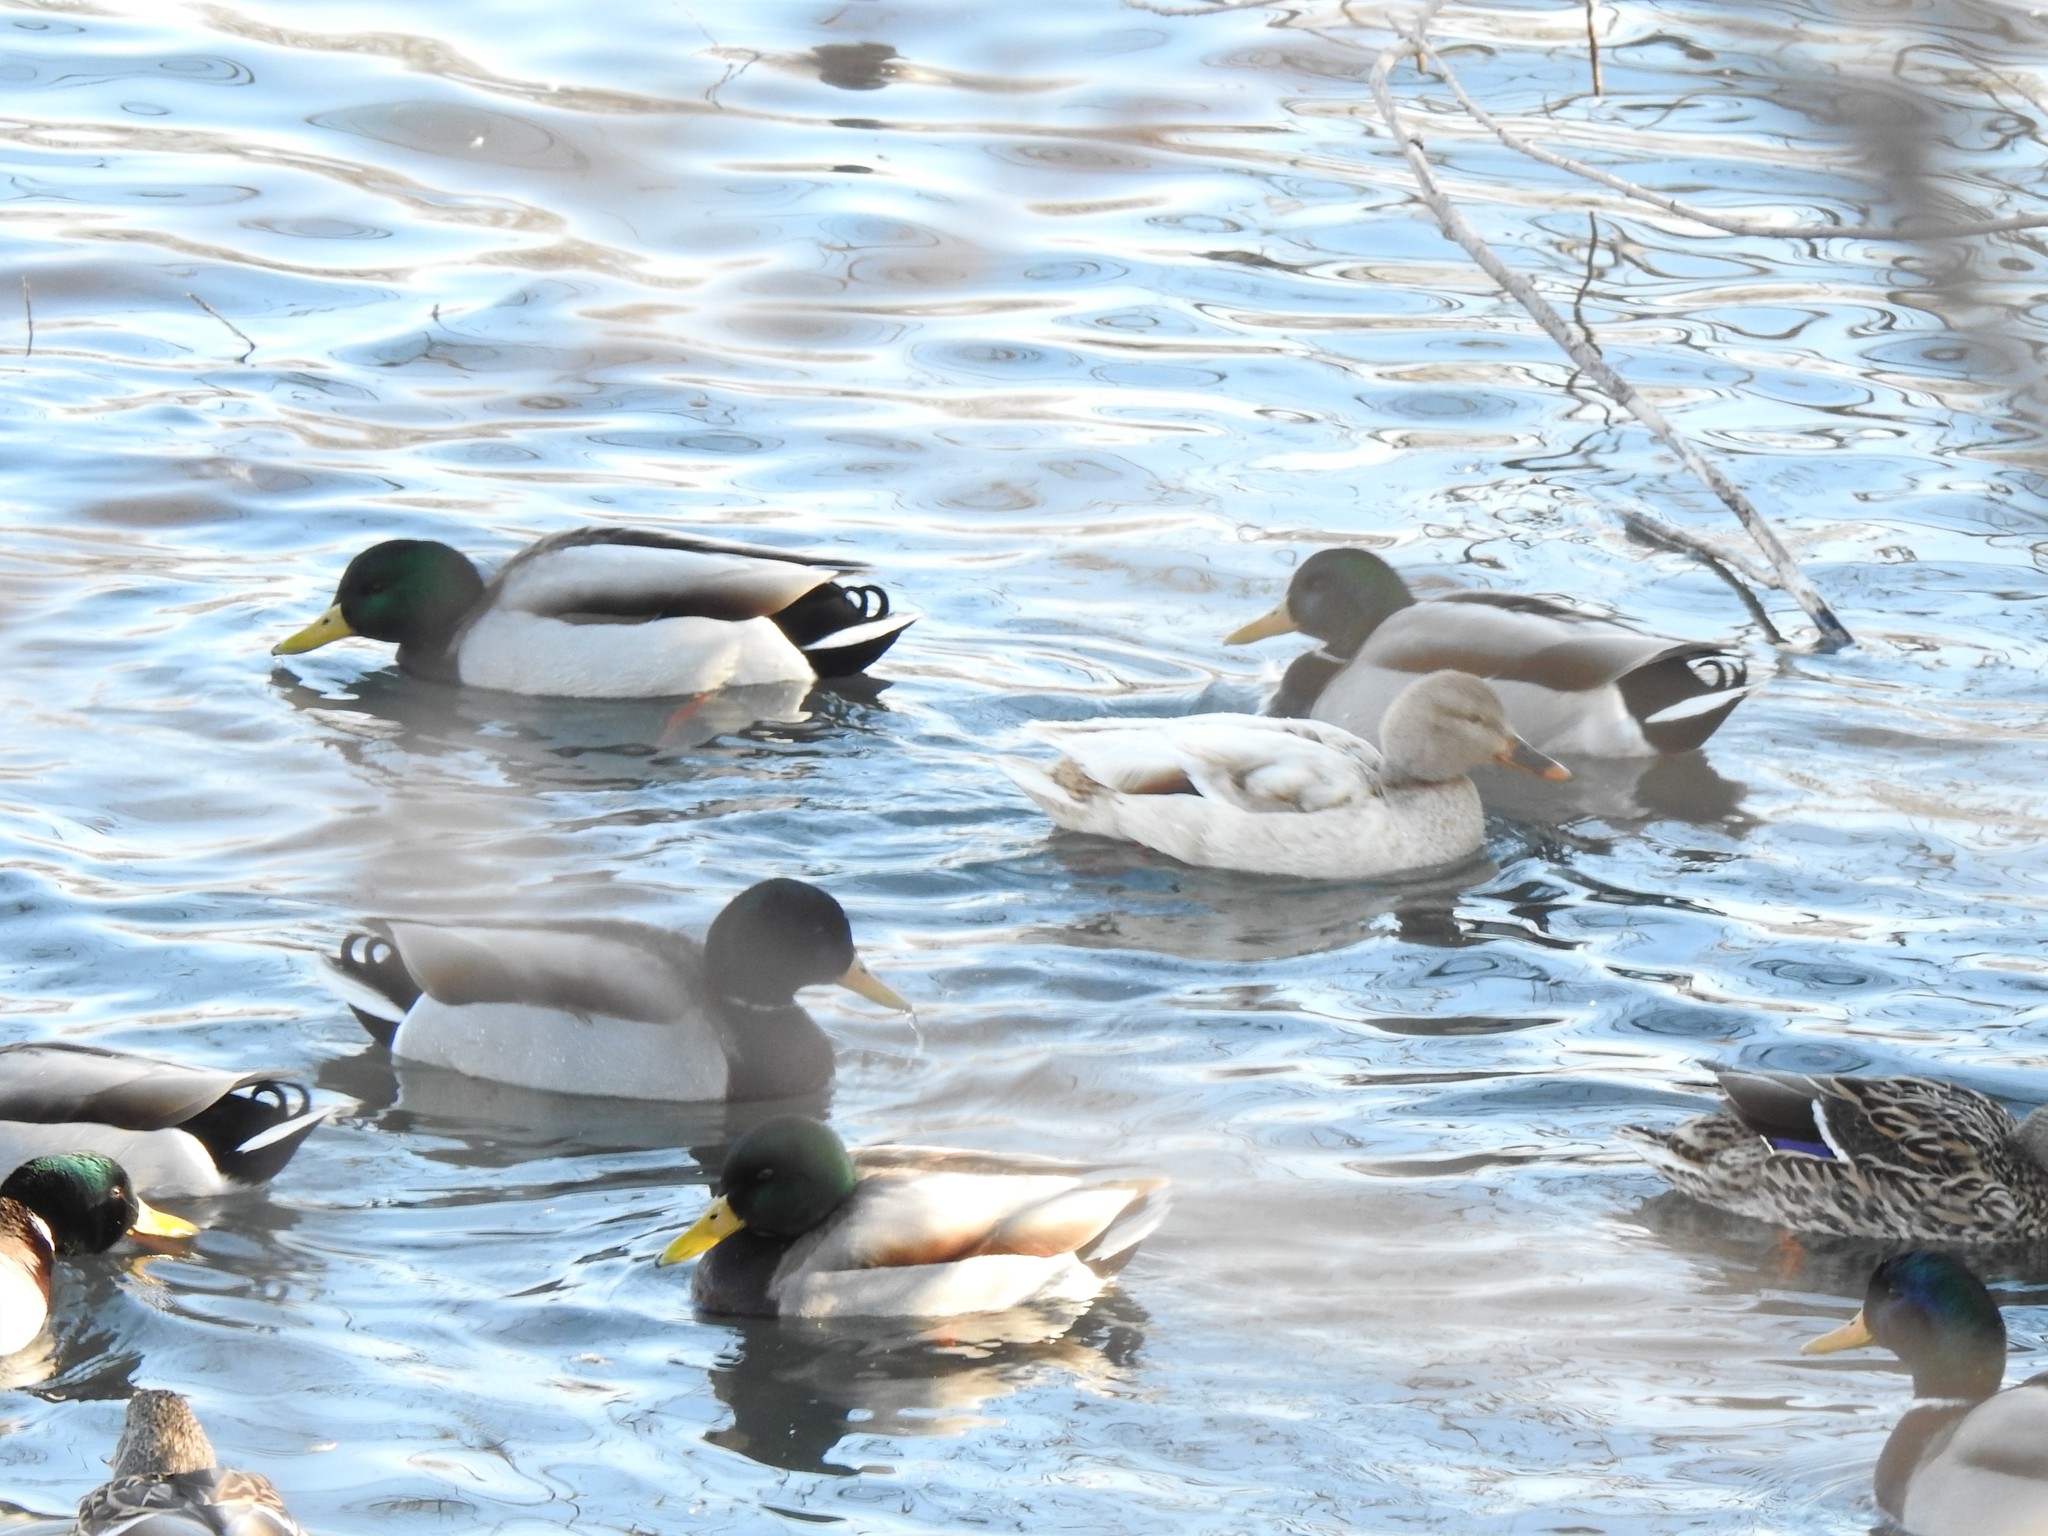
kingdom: Animalia
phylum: Chordata
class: Aves
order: Anseriformes
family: Anatidae
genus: Anas
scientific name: Anas platyrhynchos
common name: Mallard
